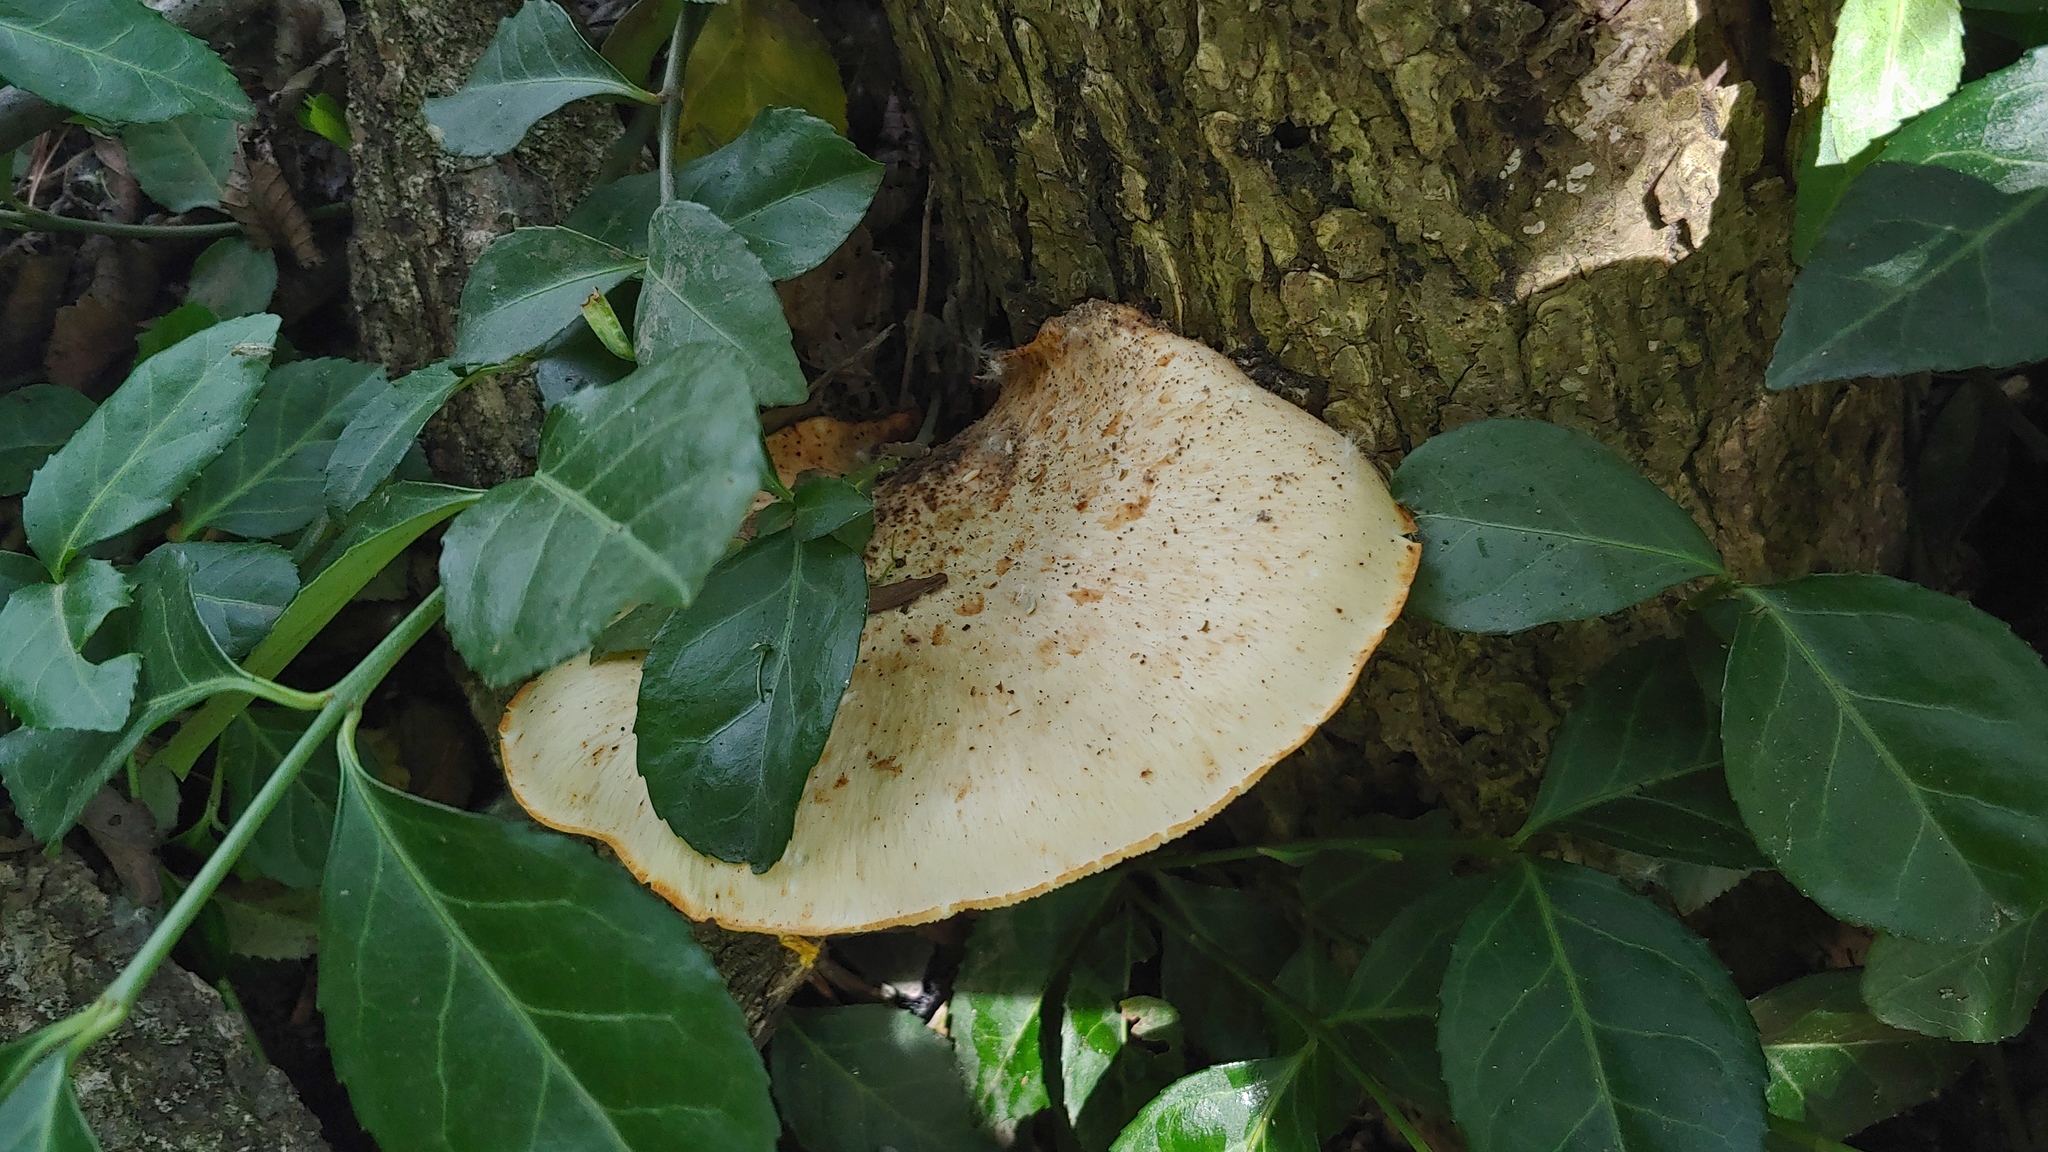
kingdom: Fungi
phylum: Basidiomycota
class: Agaricomycetes
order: Polyporales
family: Polyporaceae
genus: Cerioporus
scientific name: Cerioporus squamosus
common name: Dryad's saddle
